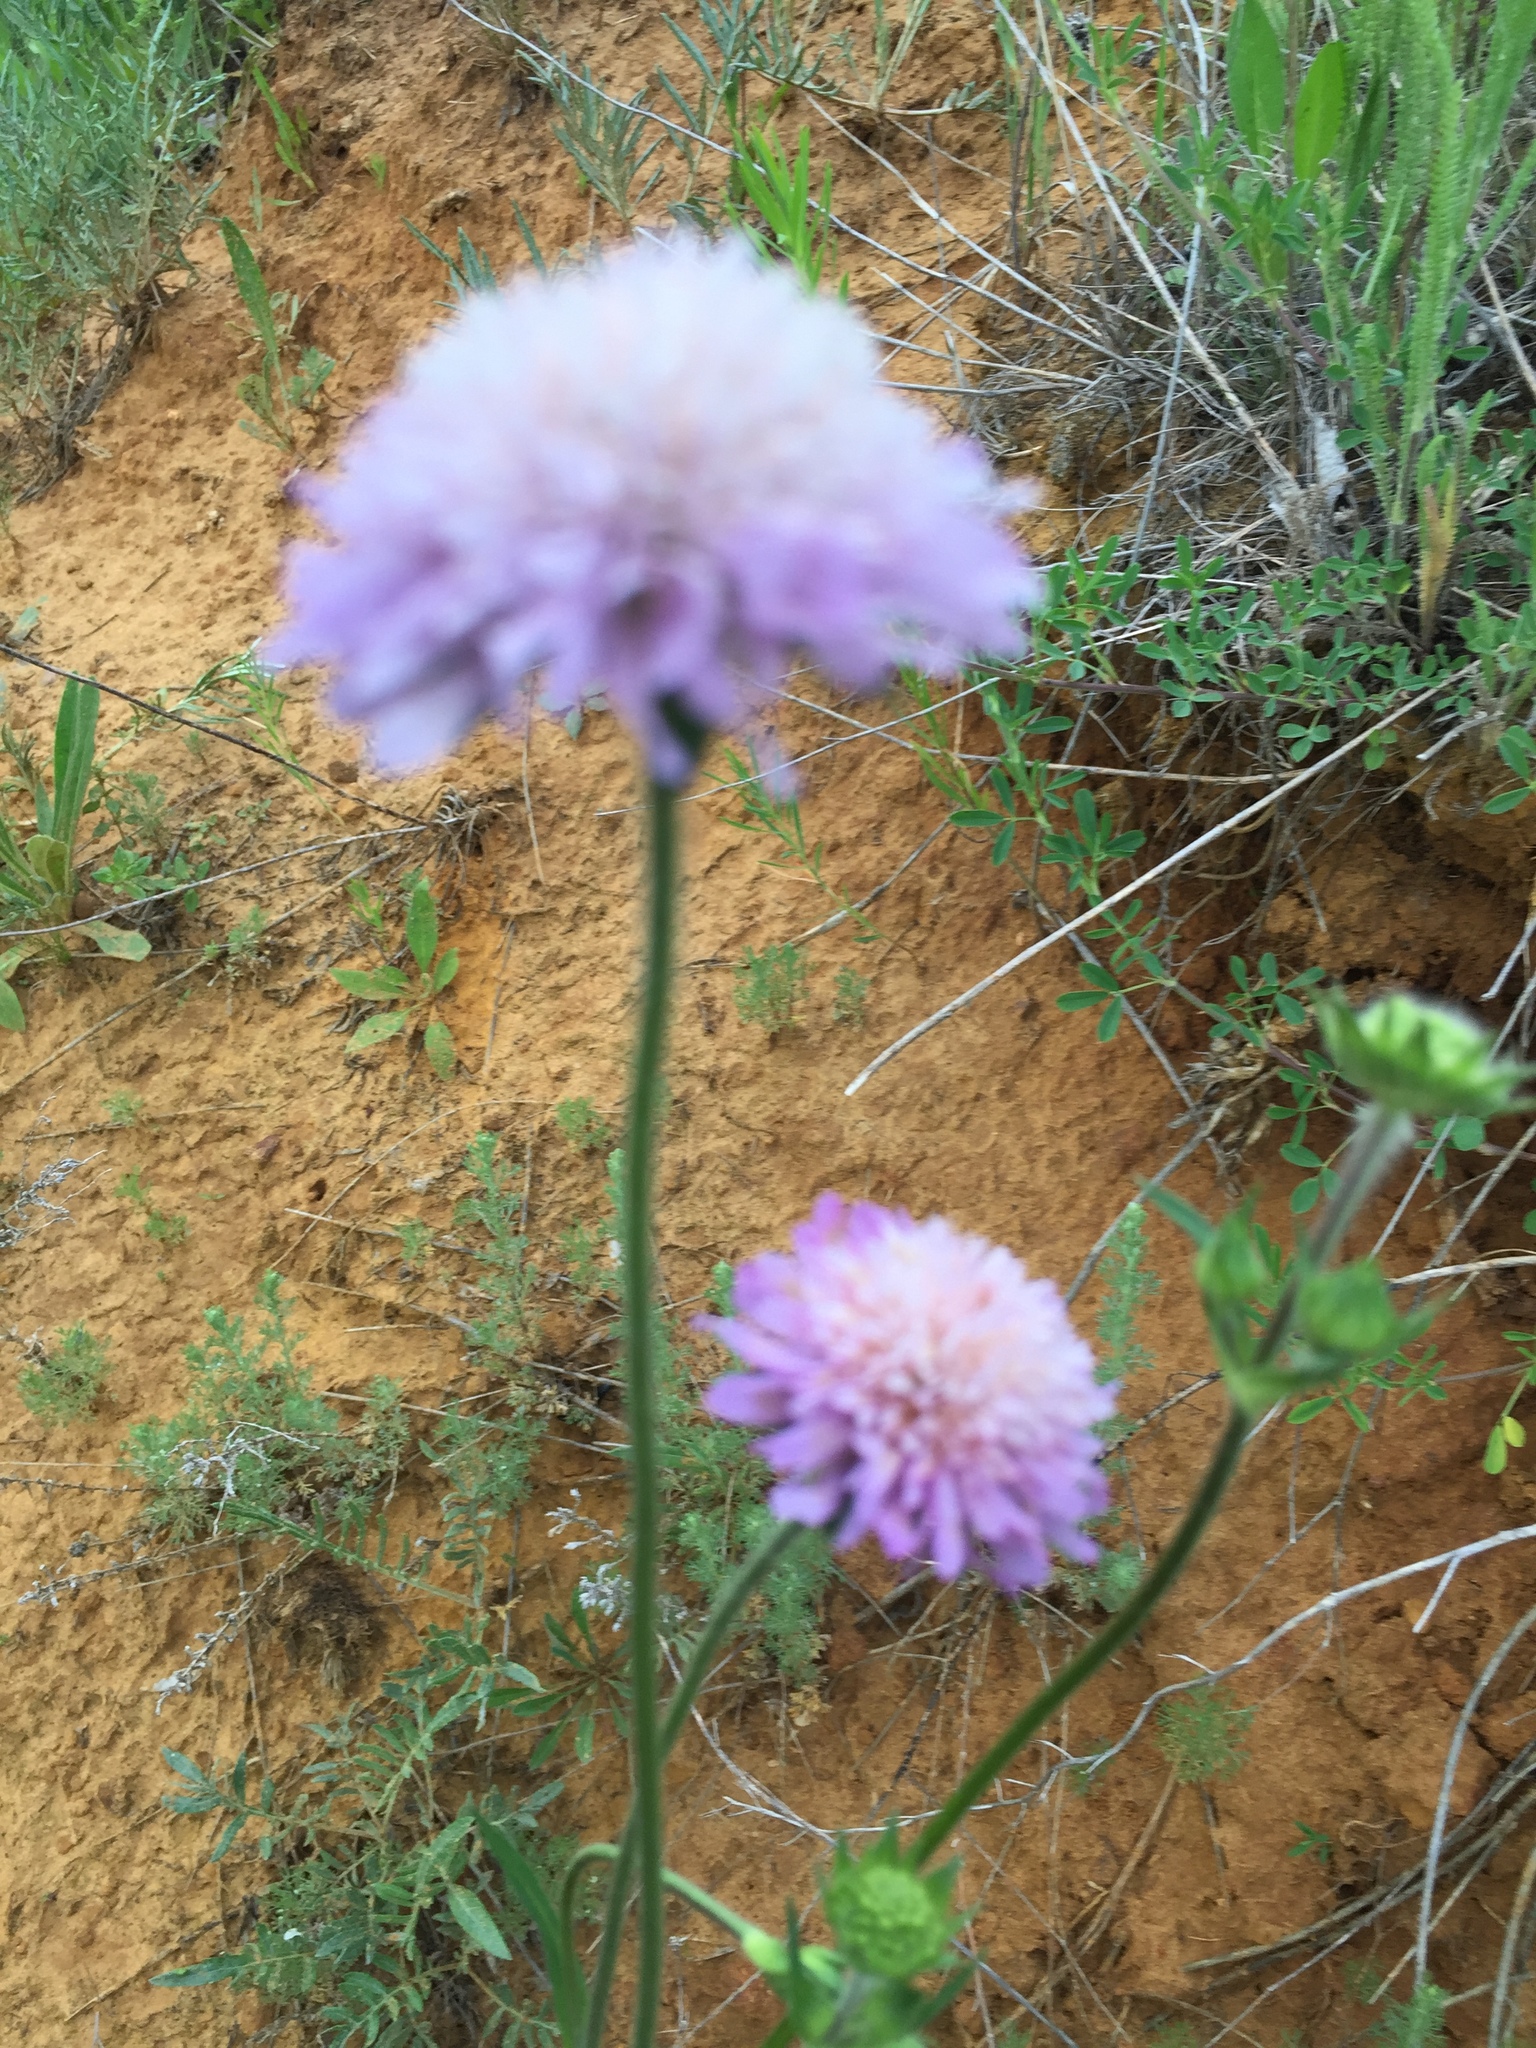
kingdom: Plantae
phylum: Tracheophyta
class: Magnoliopsida
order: Dipsacales
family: Caprifoliaceae
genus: Knautia
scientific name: Knautia arvensis
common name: Field scabiosa
